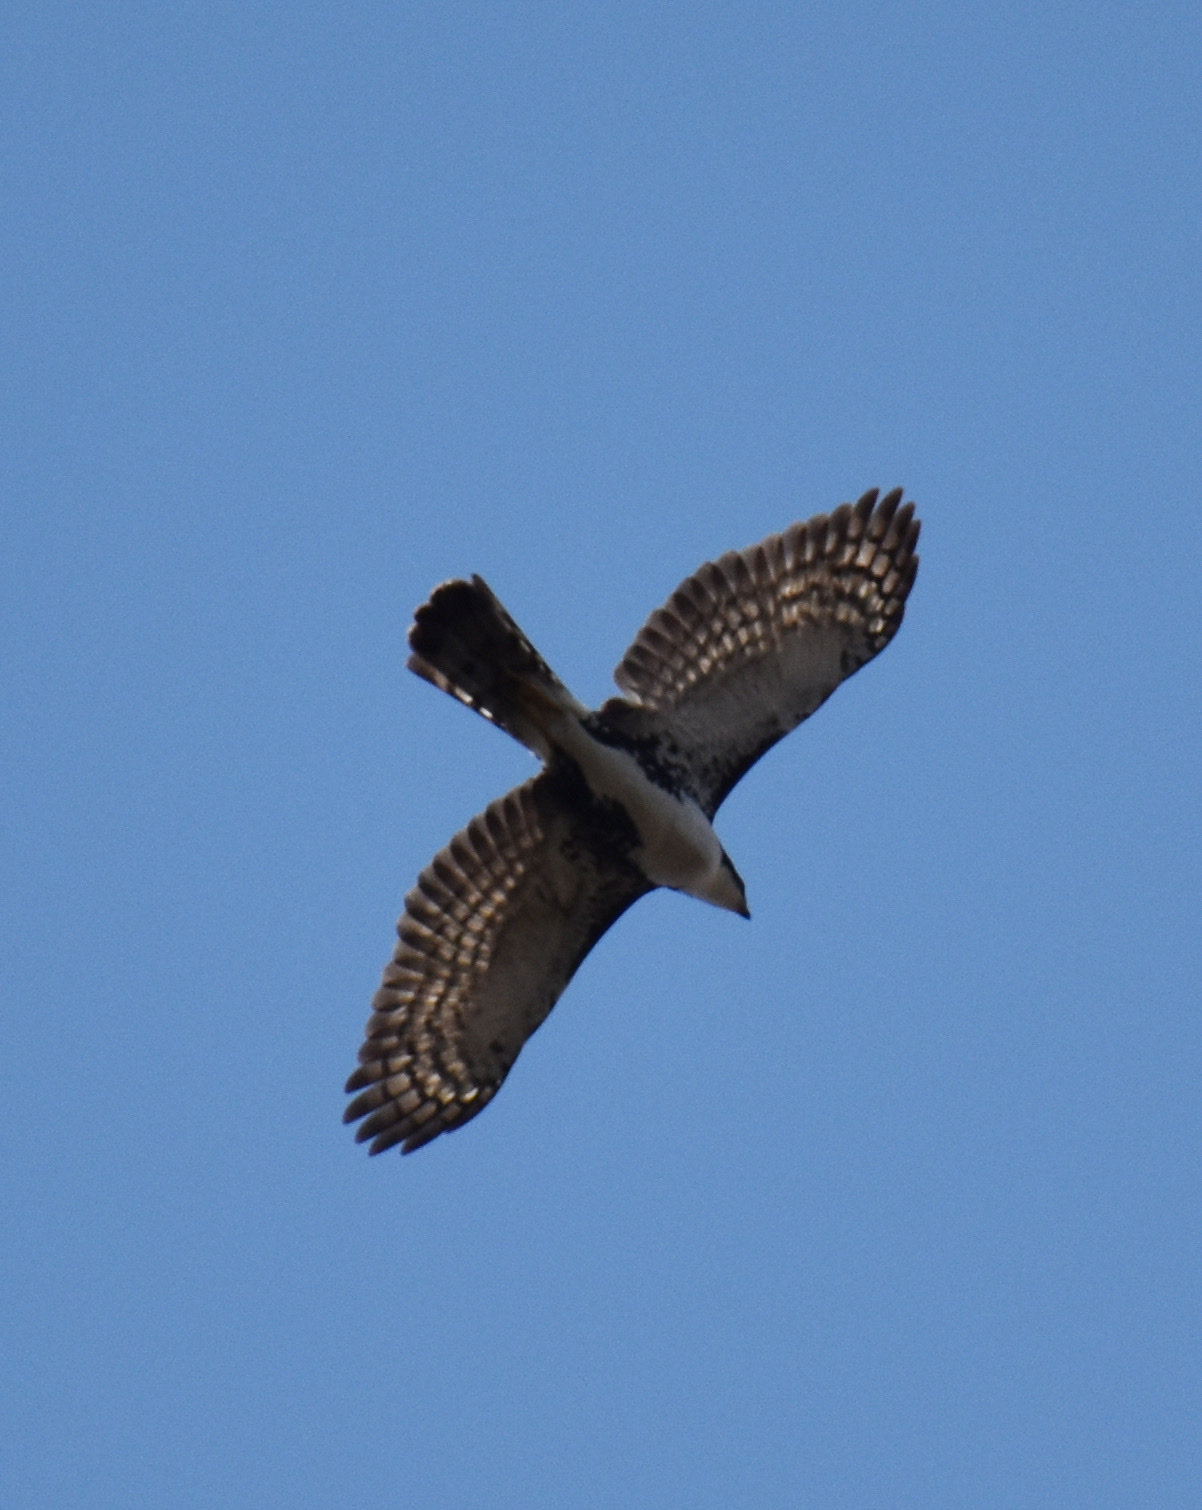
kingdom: Animalia
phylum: Chordata
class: Aves
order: Accipitriformes
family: Accipitridae
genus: Accipiter
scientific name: Accipiter melanoleucus
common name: Black sparrowhawk
